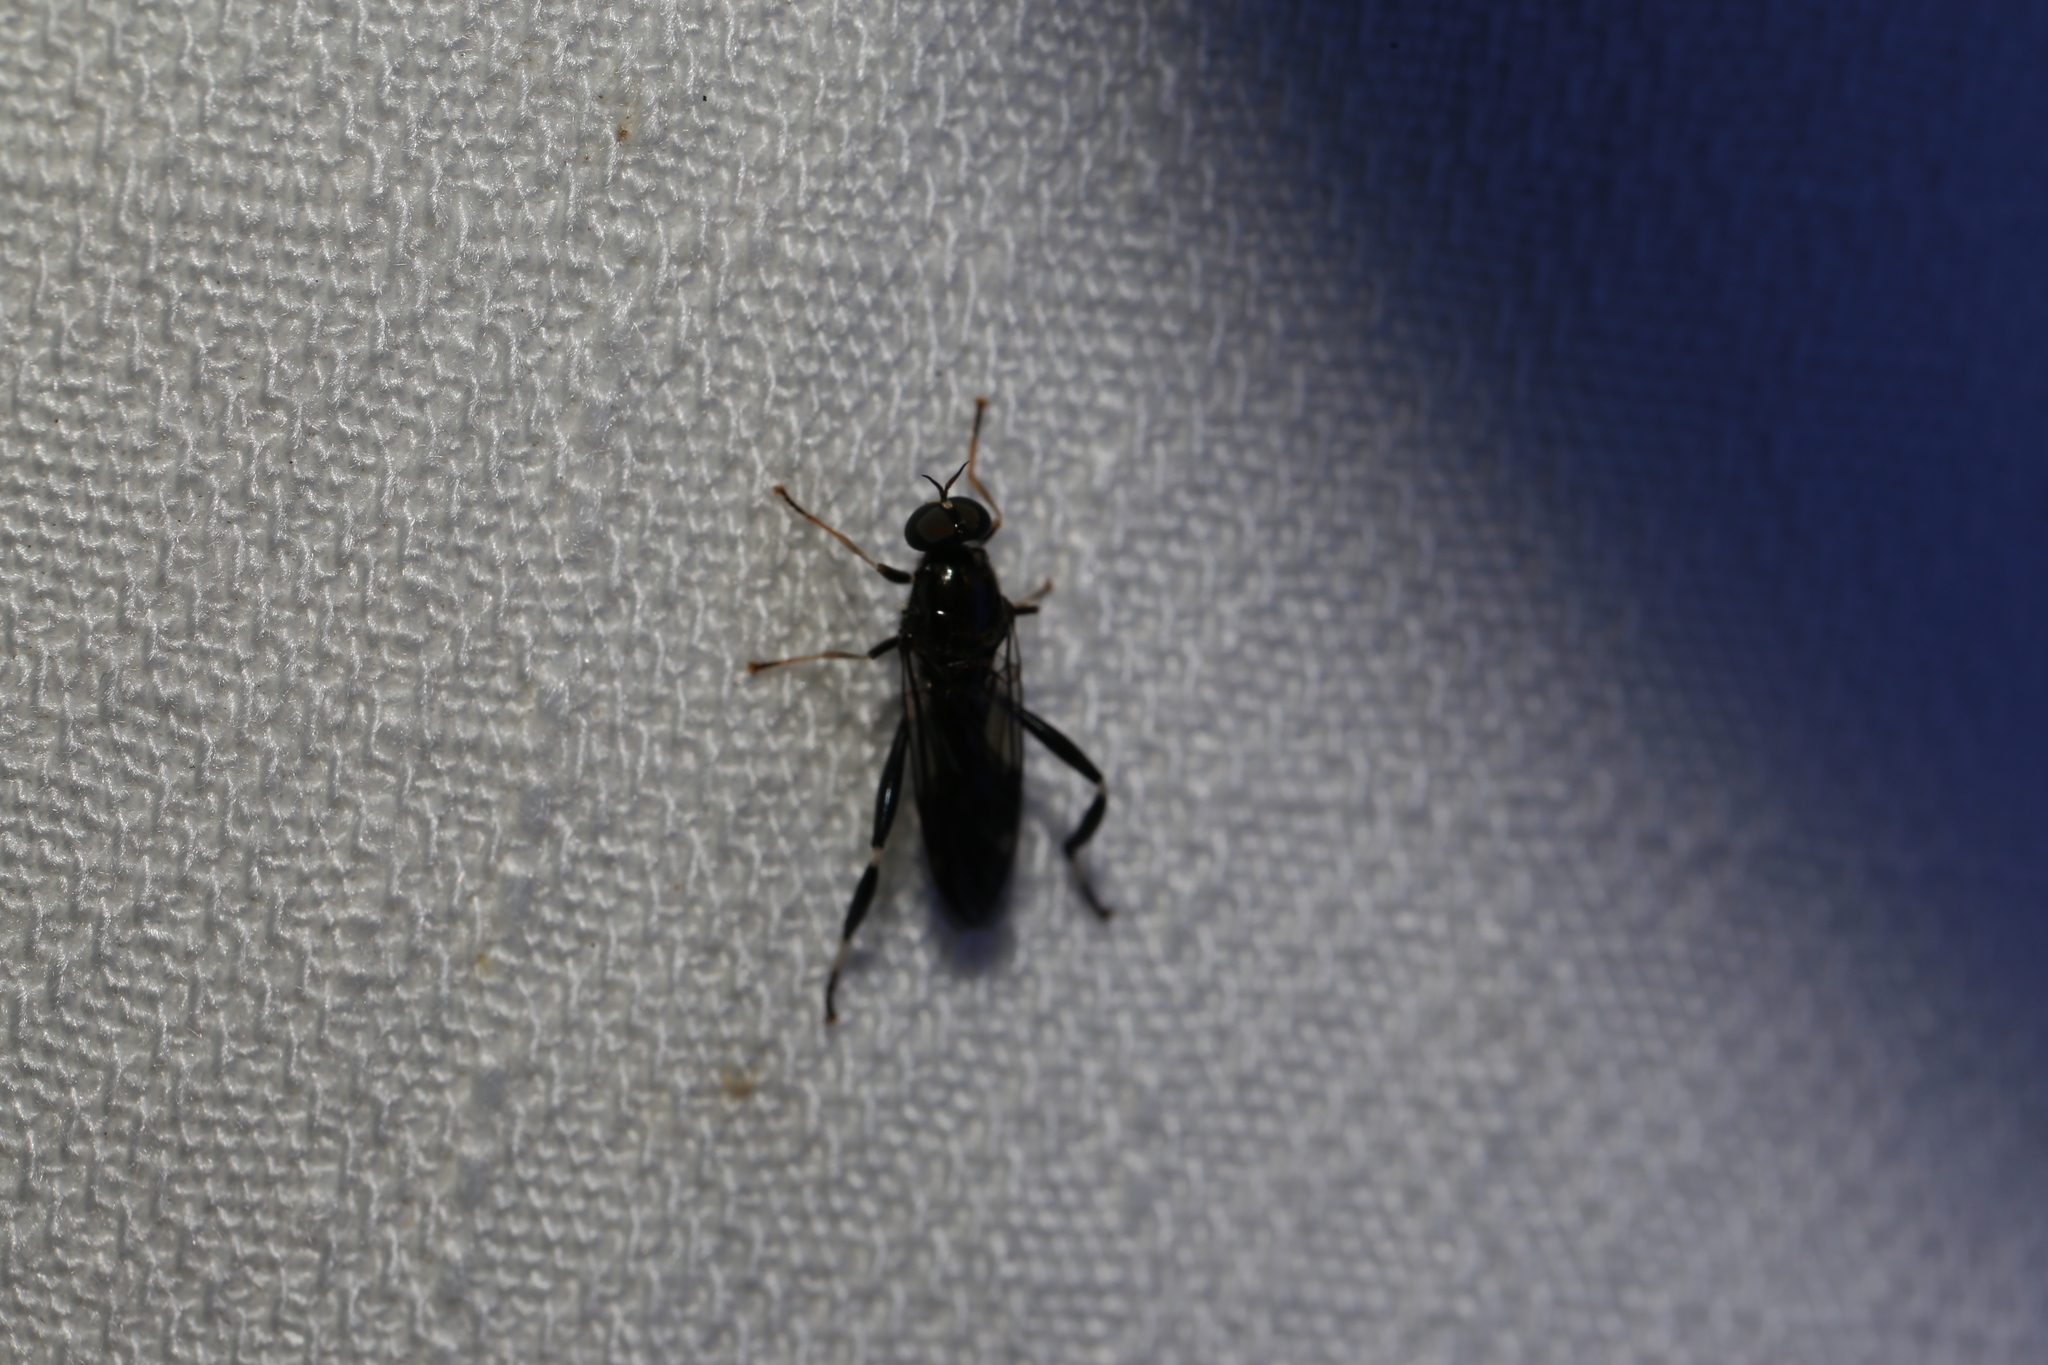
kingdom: Animalia
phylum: Arthropoda
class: Insecta
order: Diptera
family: Stratiomyidae
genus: Exaireta
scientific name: Exaireta spinigera
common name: Blue soldier fly
